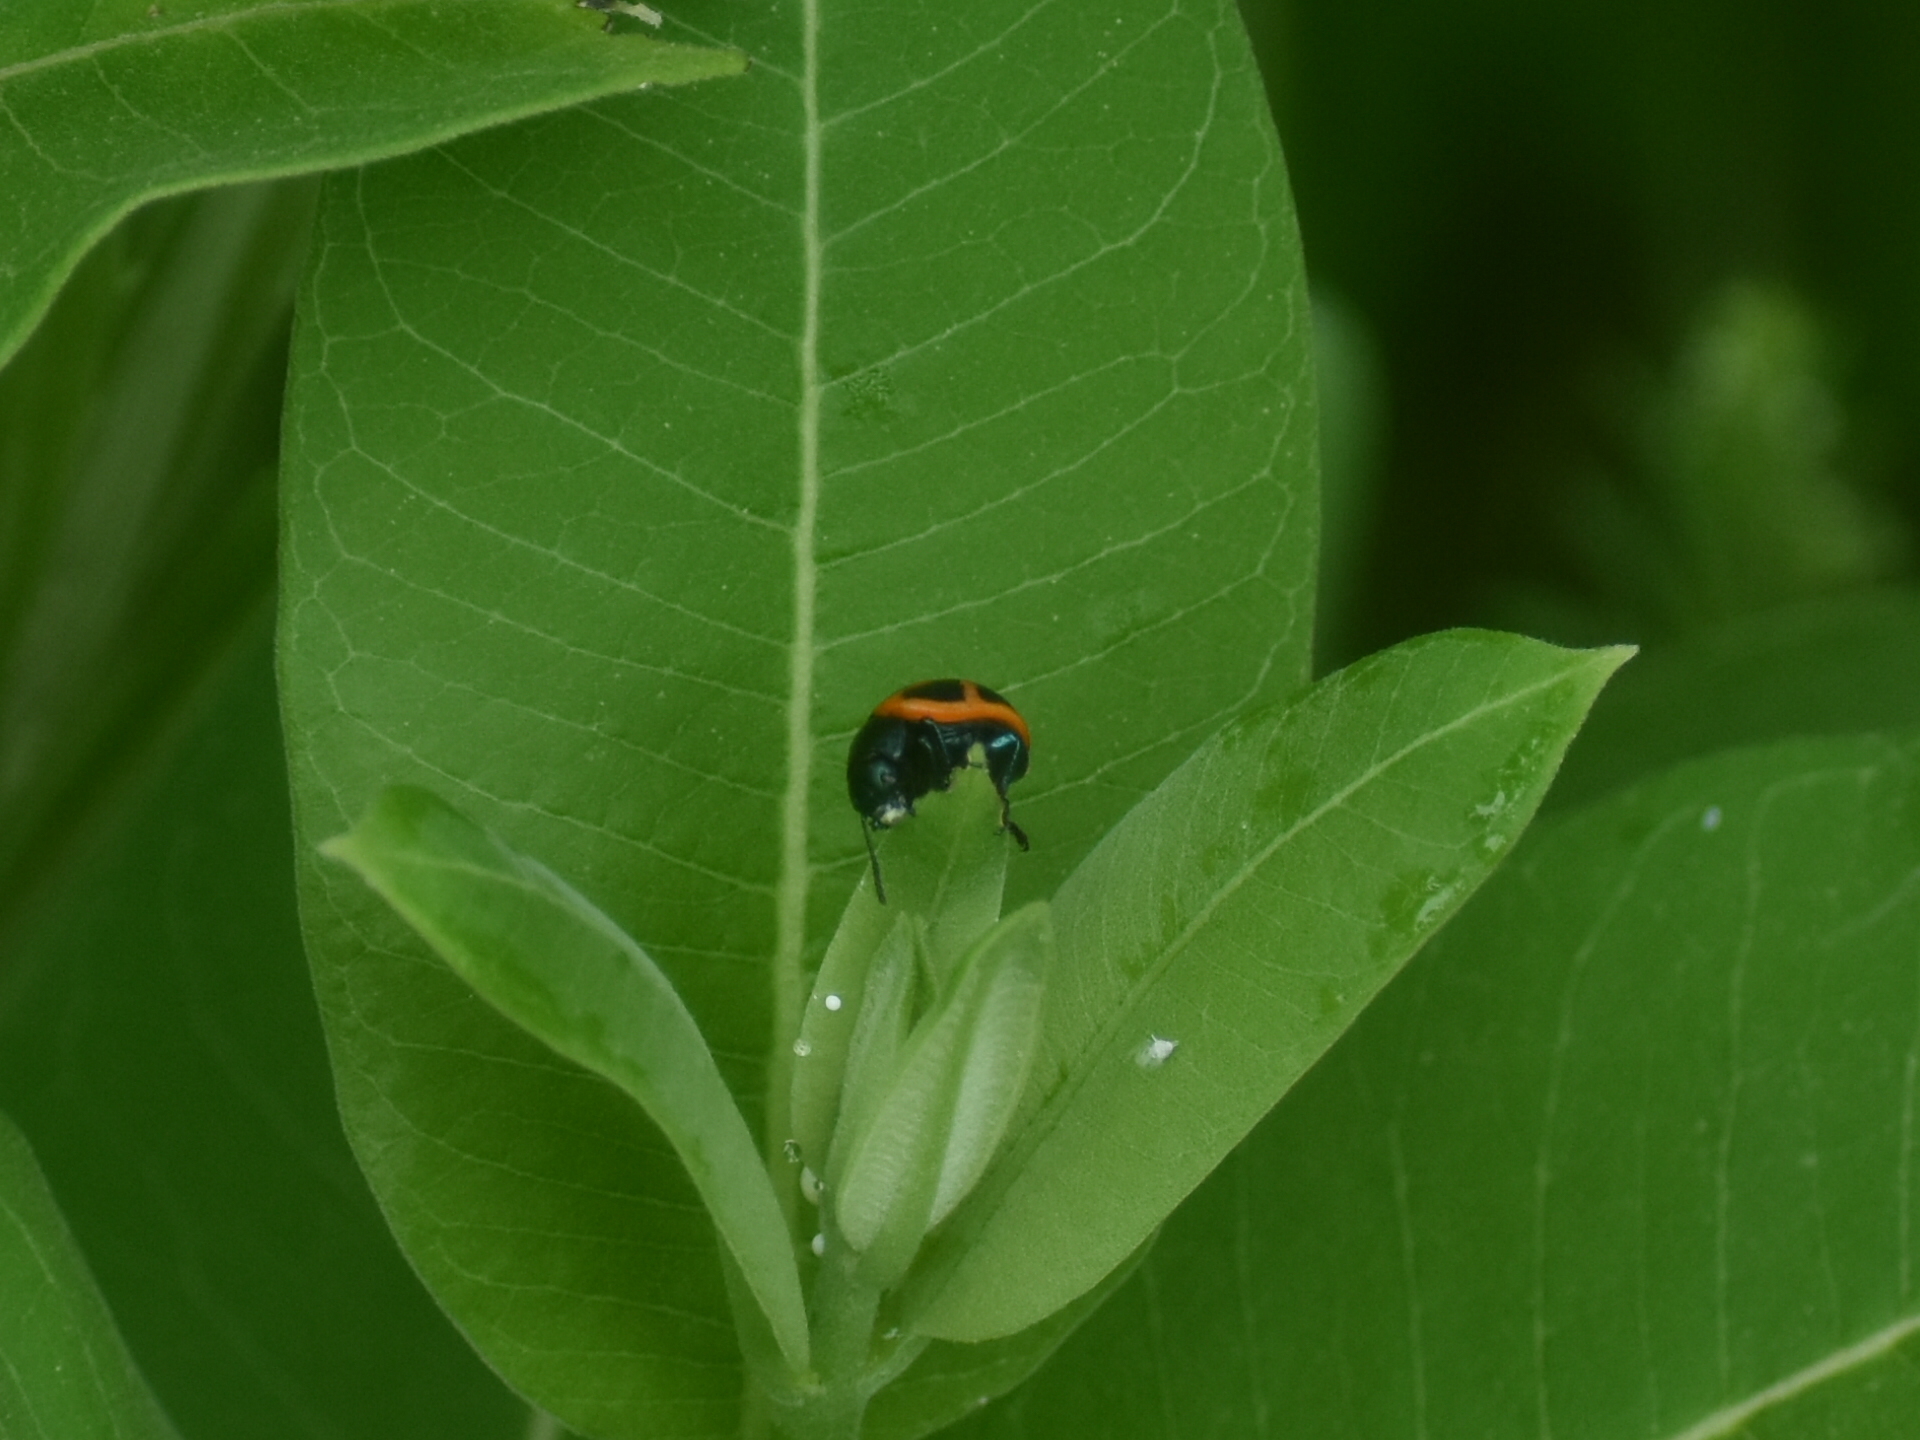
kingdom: Animalia
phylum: Arthropoda
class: Insecta
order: Coleoptera
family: Chrysomelidae
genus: Labidomera
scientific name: Labidomera clivicollis
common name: Swamp milkweed leaf beetle
